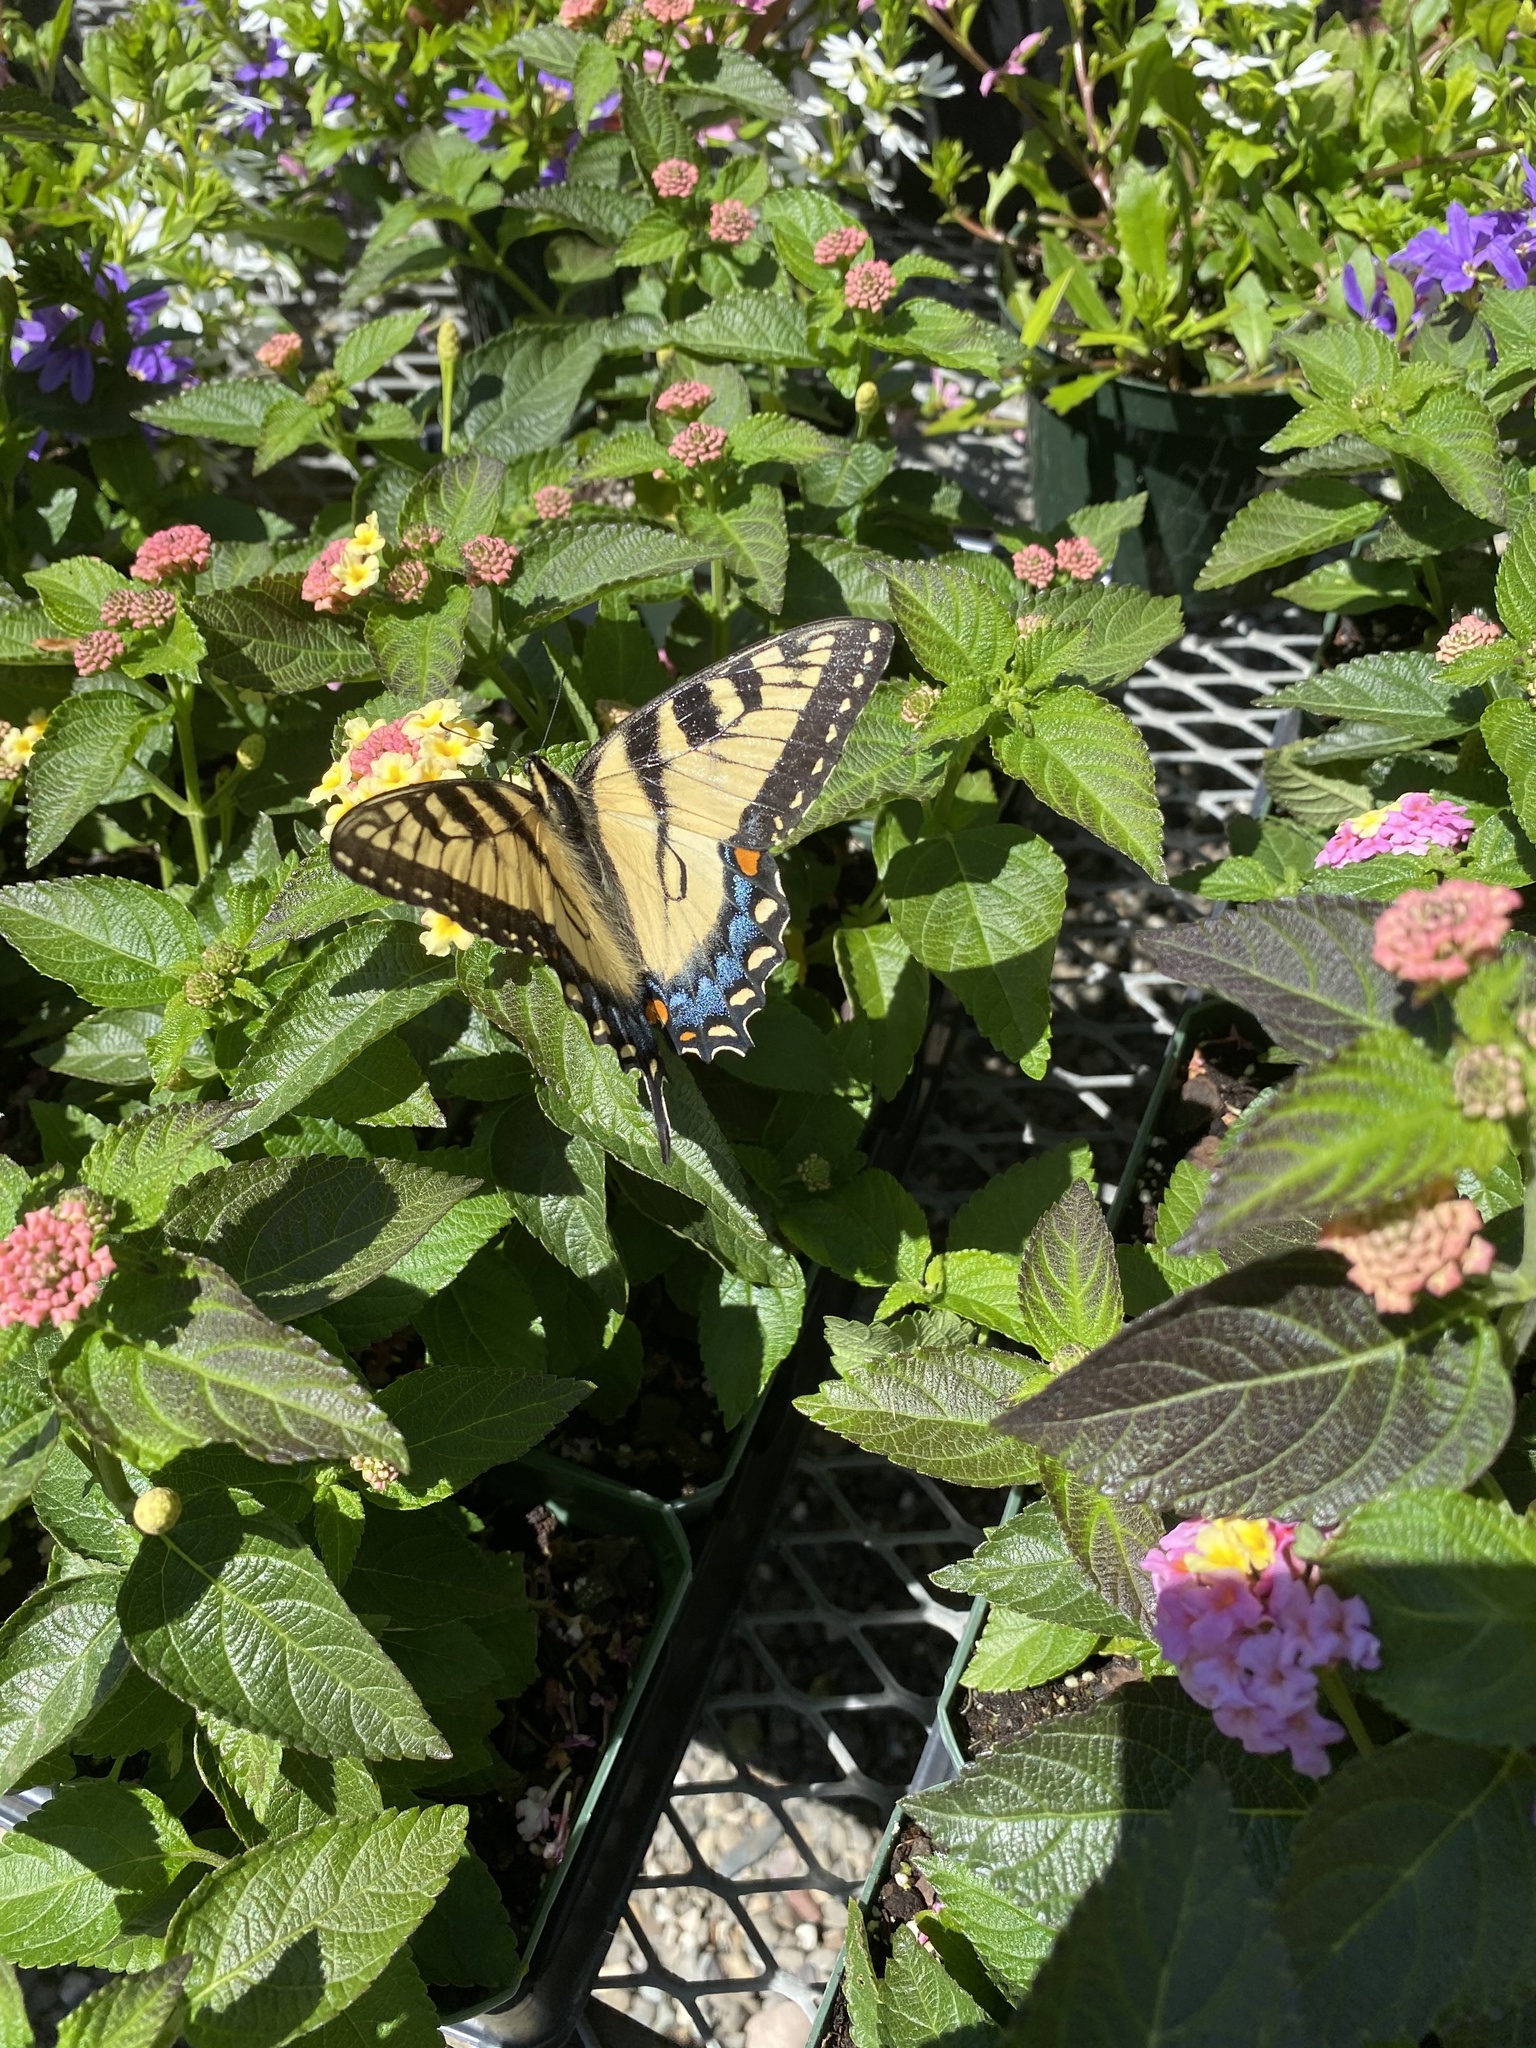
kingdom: Animalia
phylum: Arthropoda
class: Insecta
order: Lepidoptera
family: Papilionidae
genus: Papilio
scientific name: Papilio glaucus
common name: Tiger swallowtail
